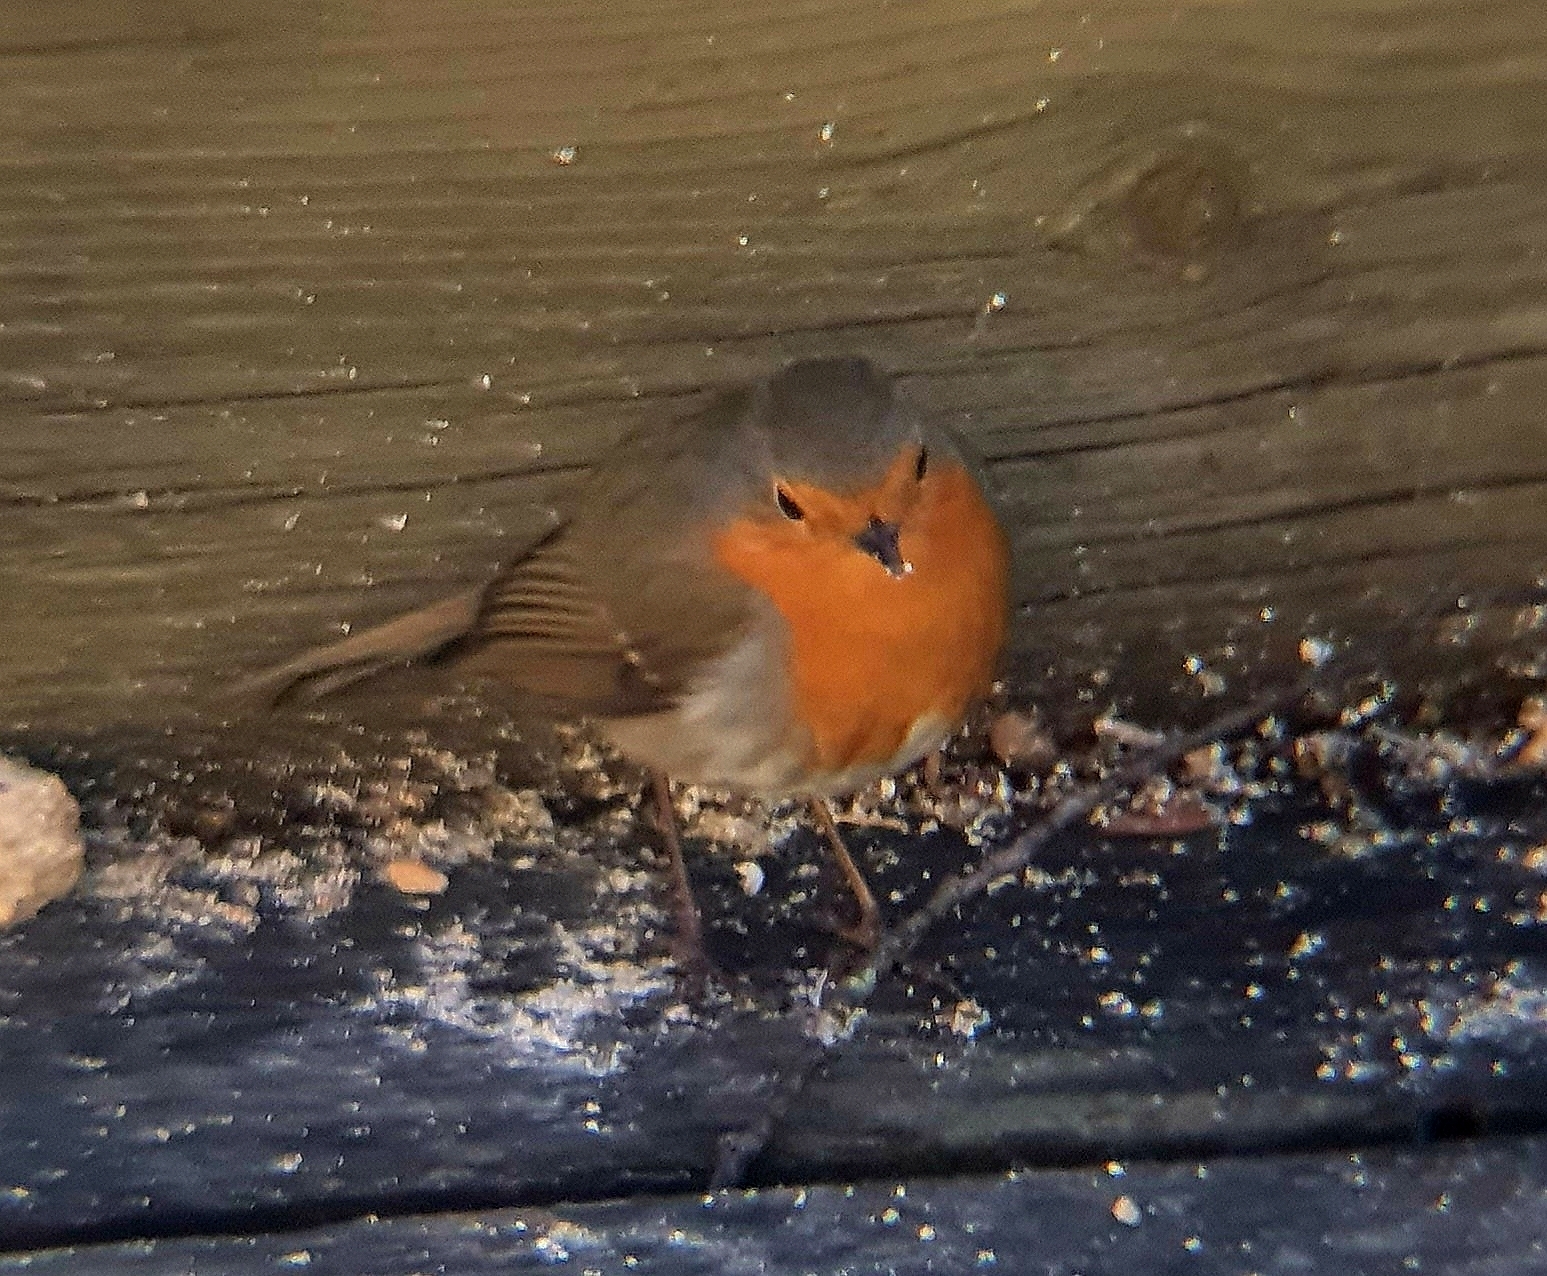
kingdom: Animalia
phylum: Chordata
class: Aves
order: Passeriformes
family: Muscicapidae
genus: Erithacus
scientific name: Erithacus rubecula
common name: European robin
